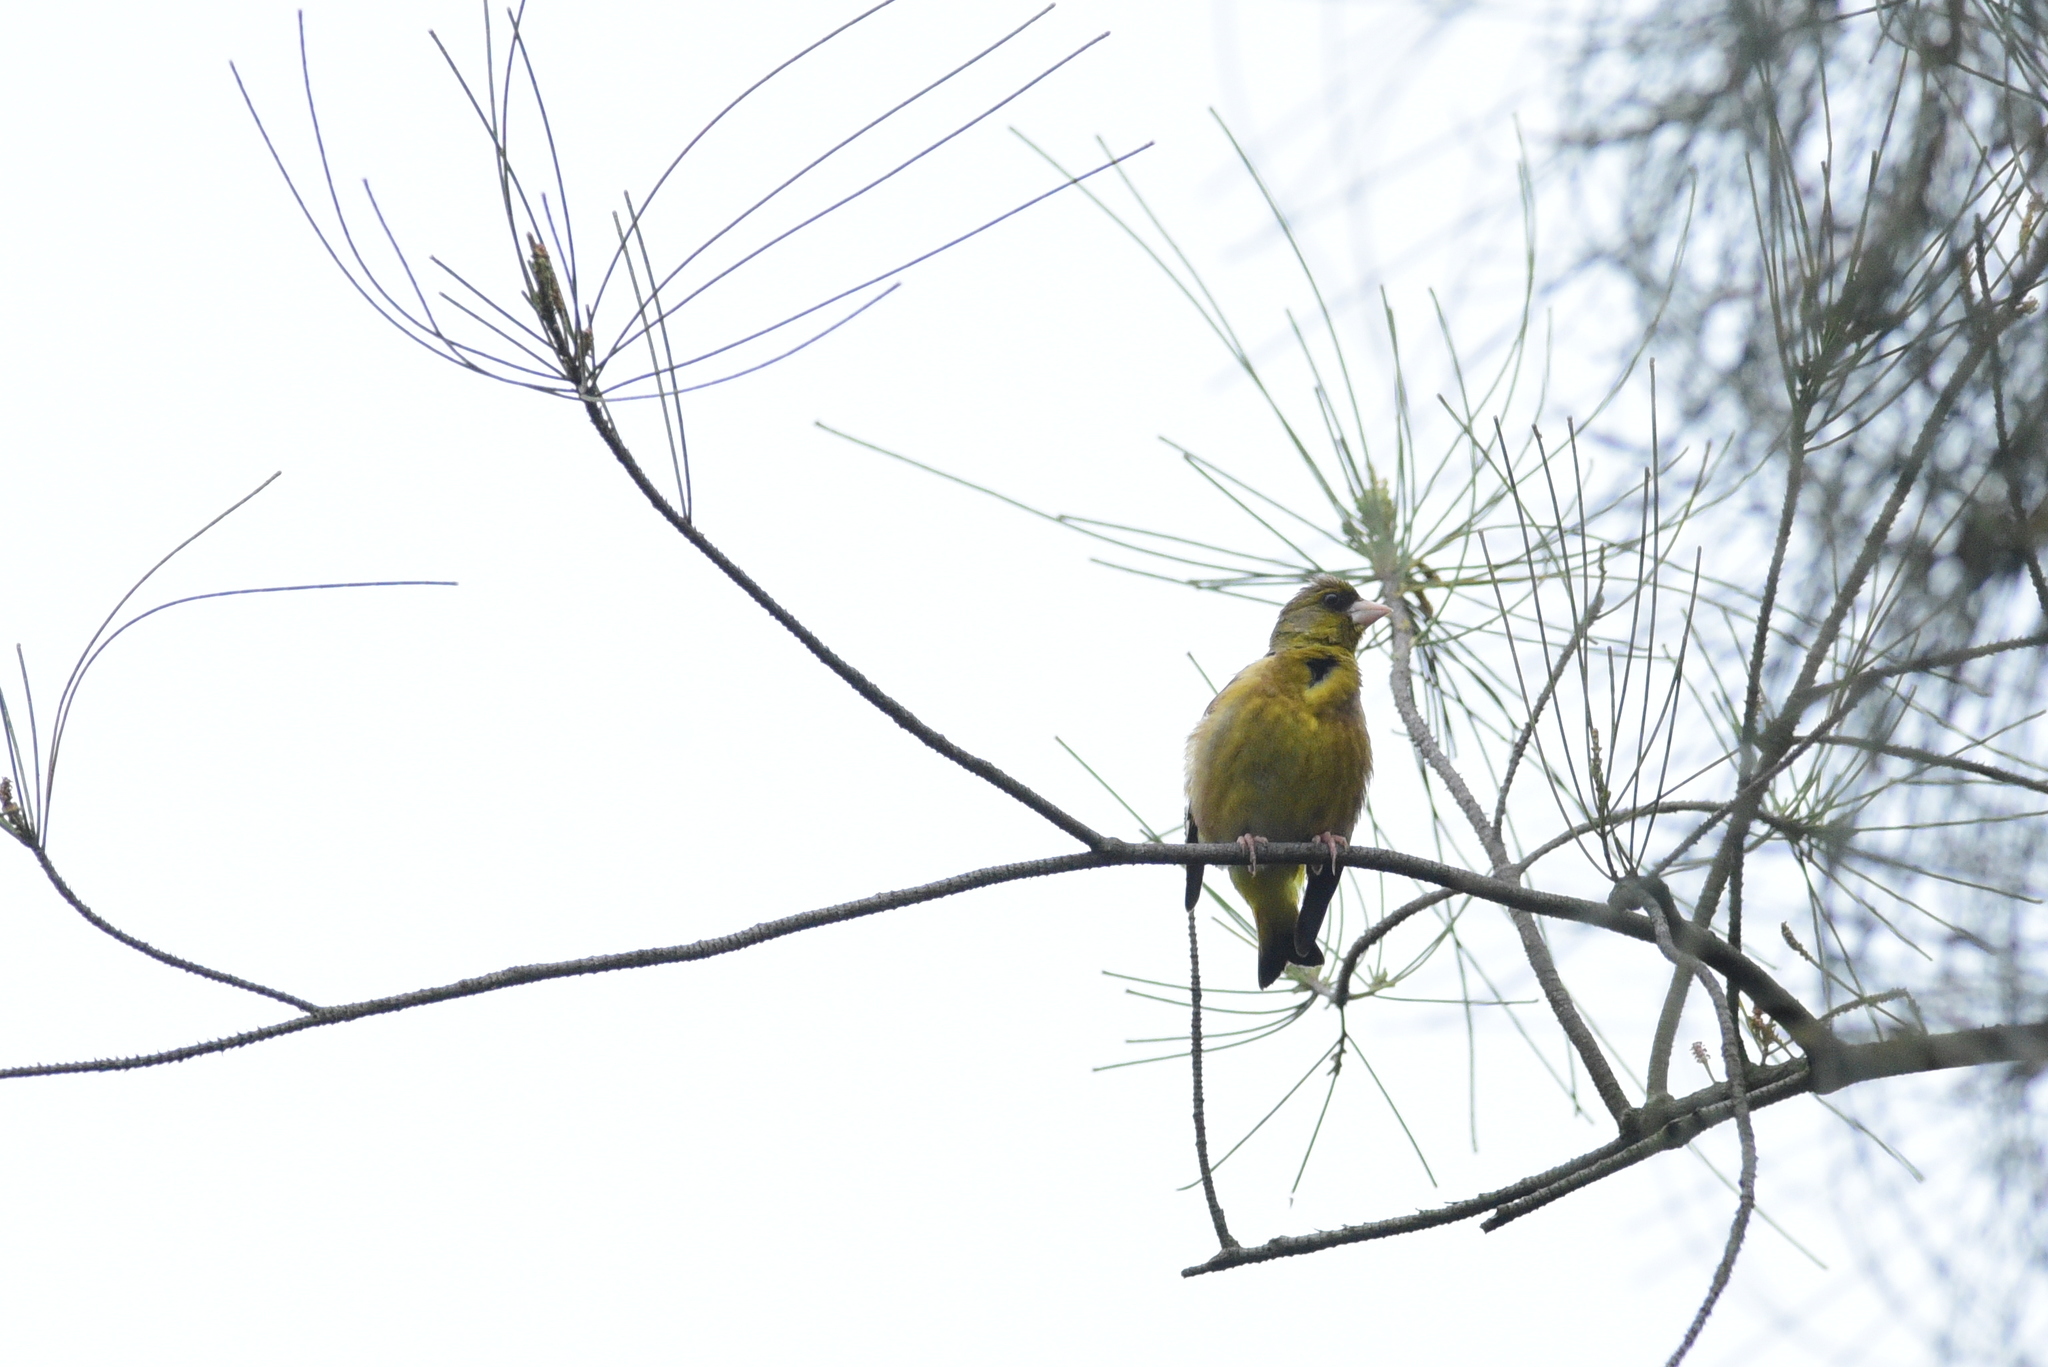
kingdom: Plantae
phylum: Tracheophyta
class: Liliopsida
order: Poales
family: Poaceae
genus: Chloris
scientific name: Chloris sinica
